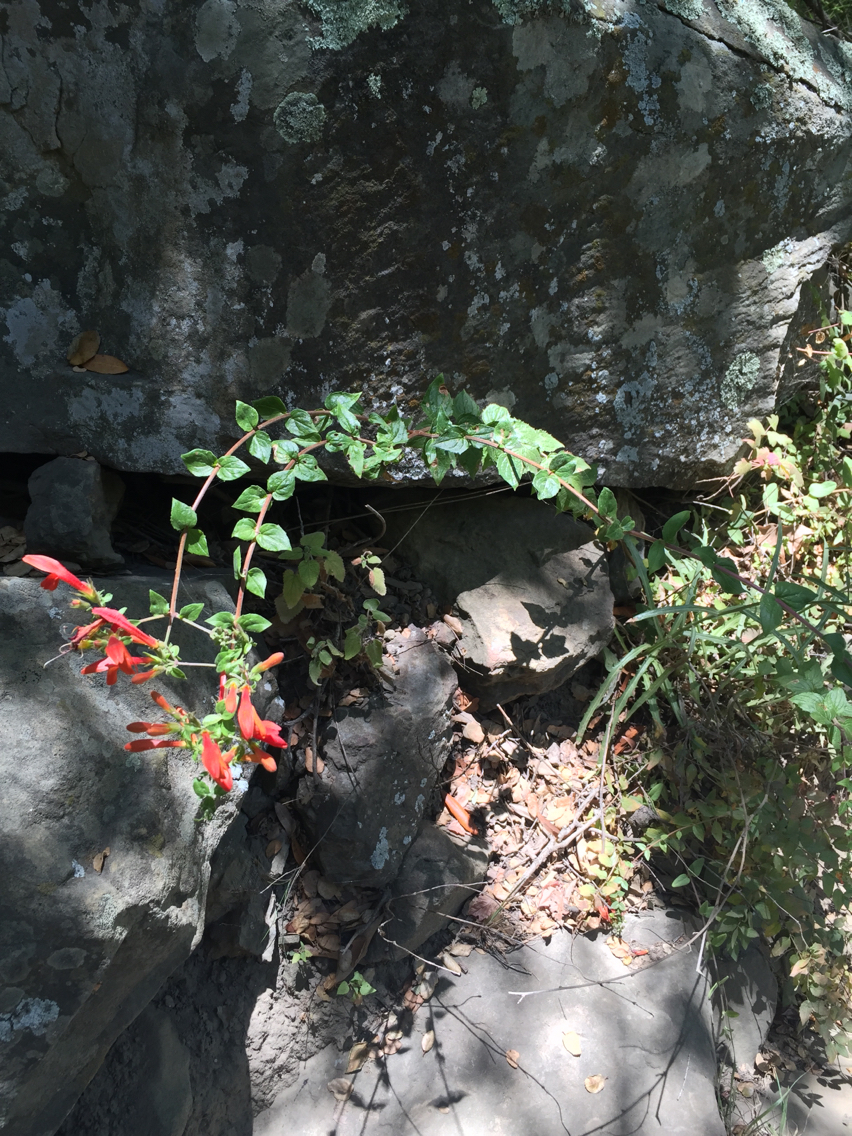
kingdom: Plantae
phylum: Tracheophyta
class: Magnoliopsida
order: Lamiales
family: Plantaginaceae
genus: Keckiella
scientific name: Keckiella cordifolia
